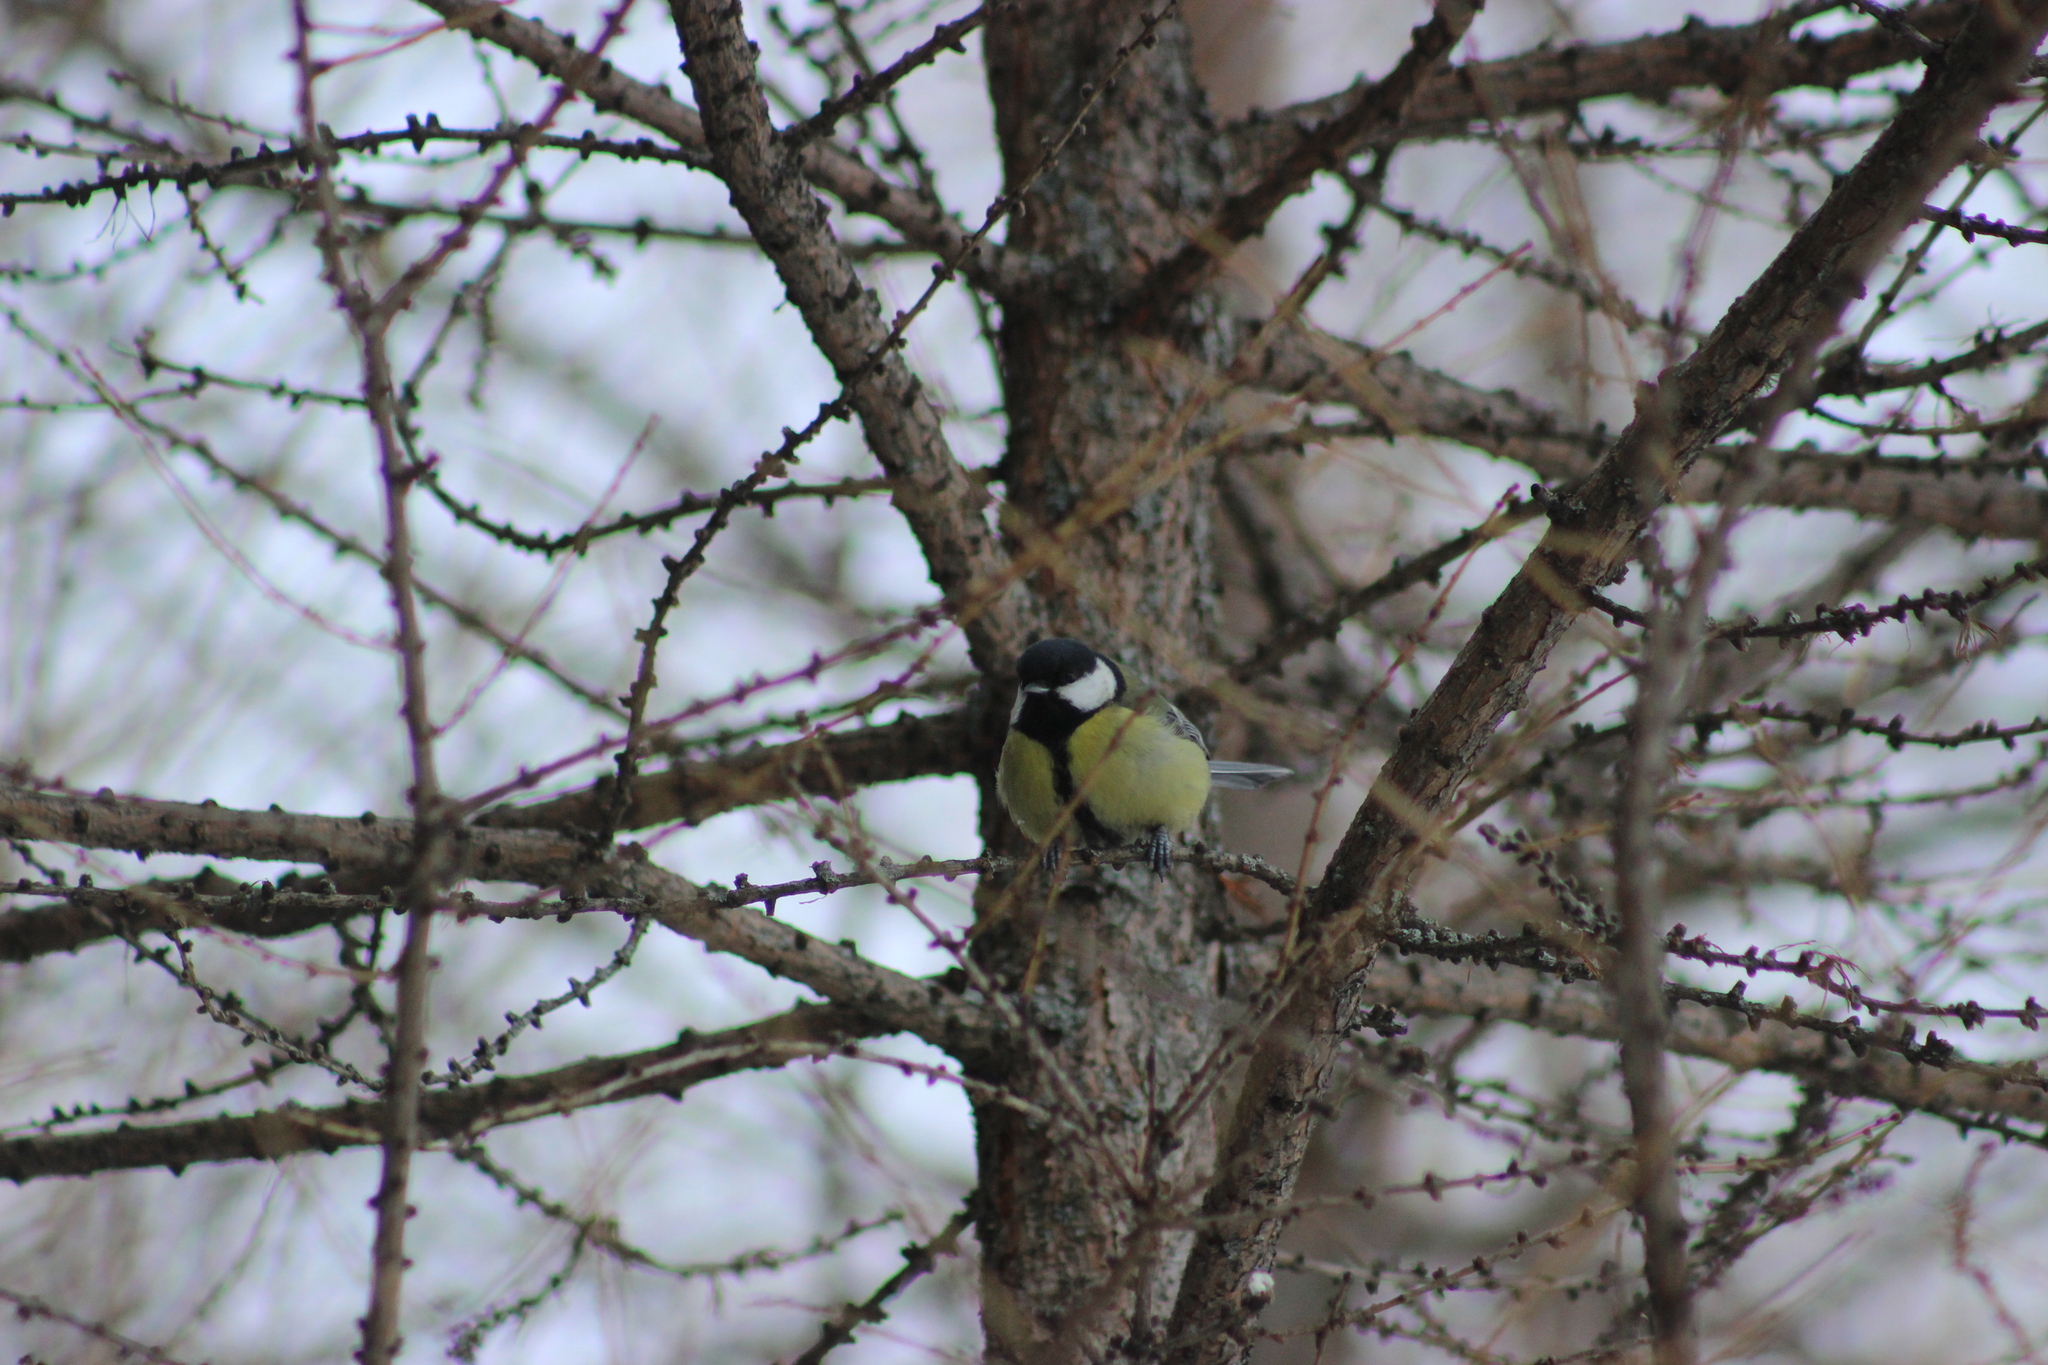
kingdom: Animalia
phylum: Chordata
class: Aves
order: Passeriformes
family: Paridae
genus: Parus
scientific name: Parus major
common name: Great tit
